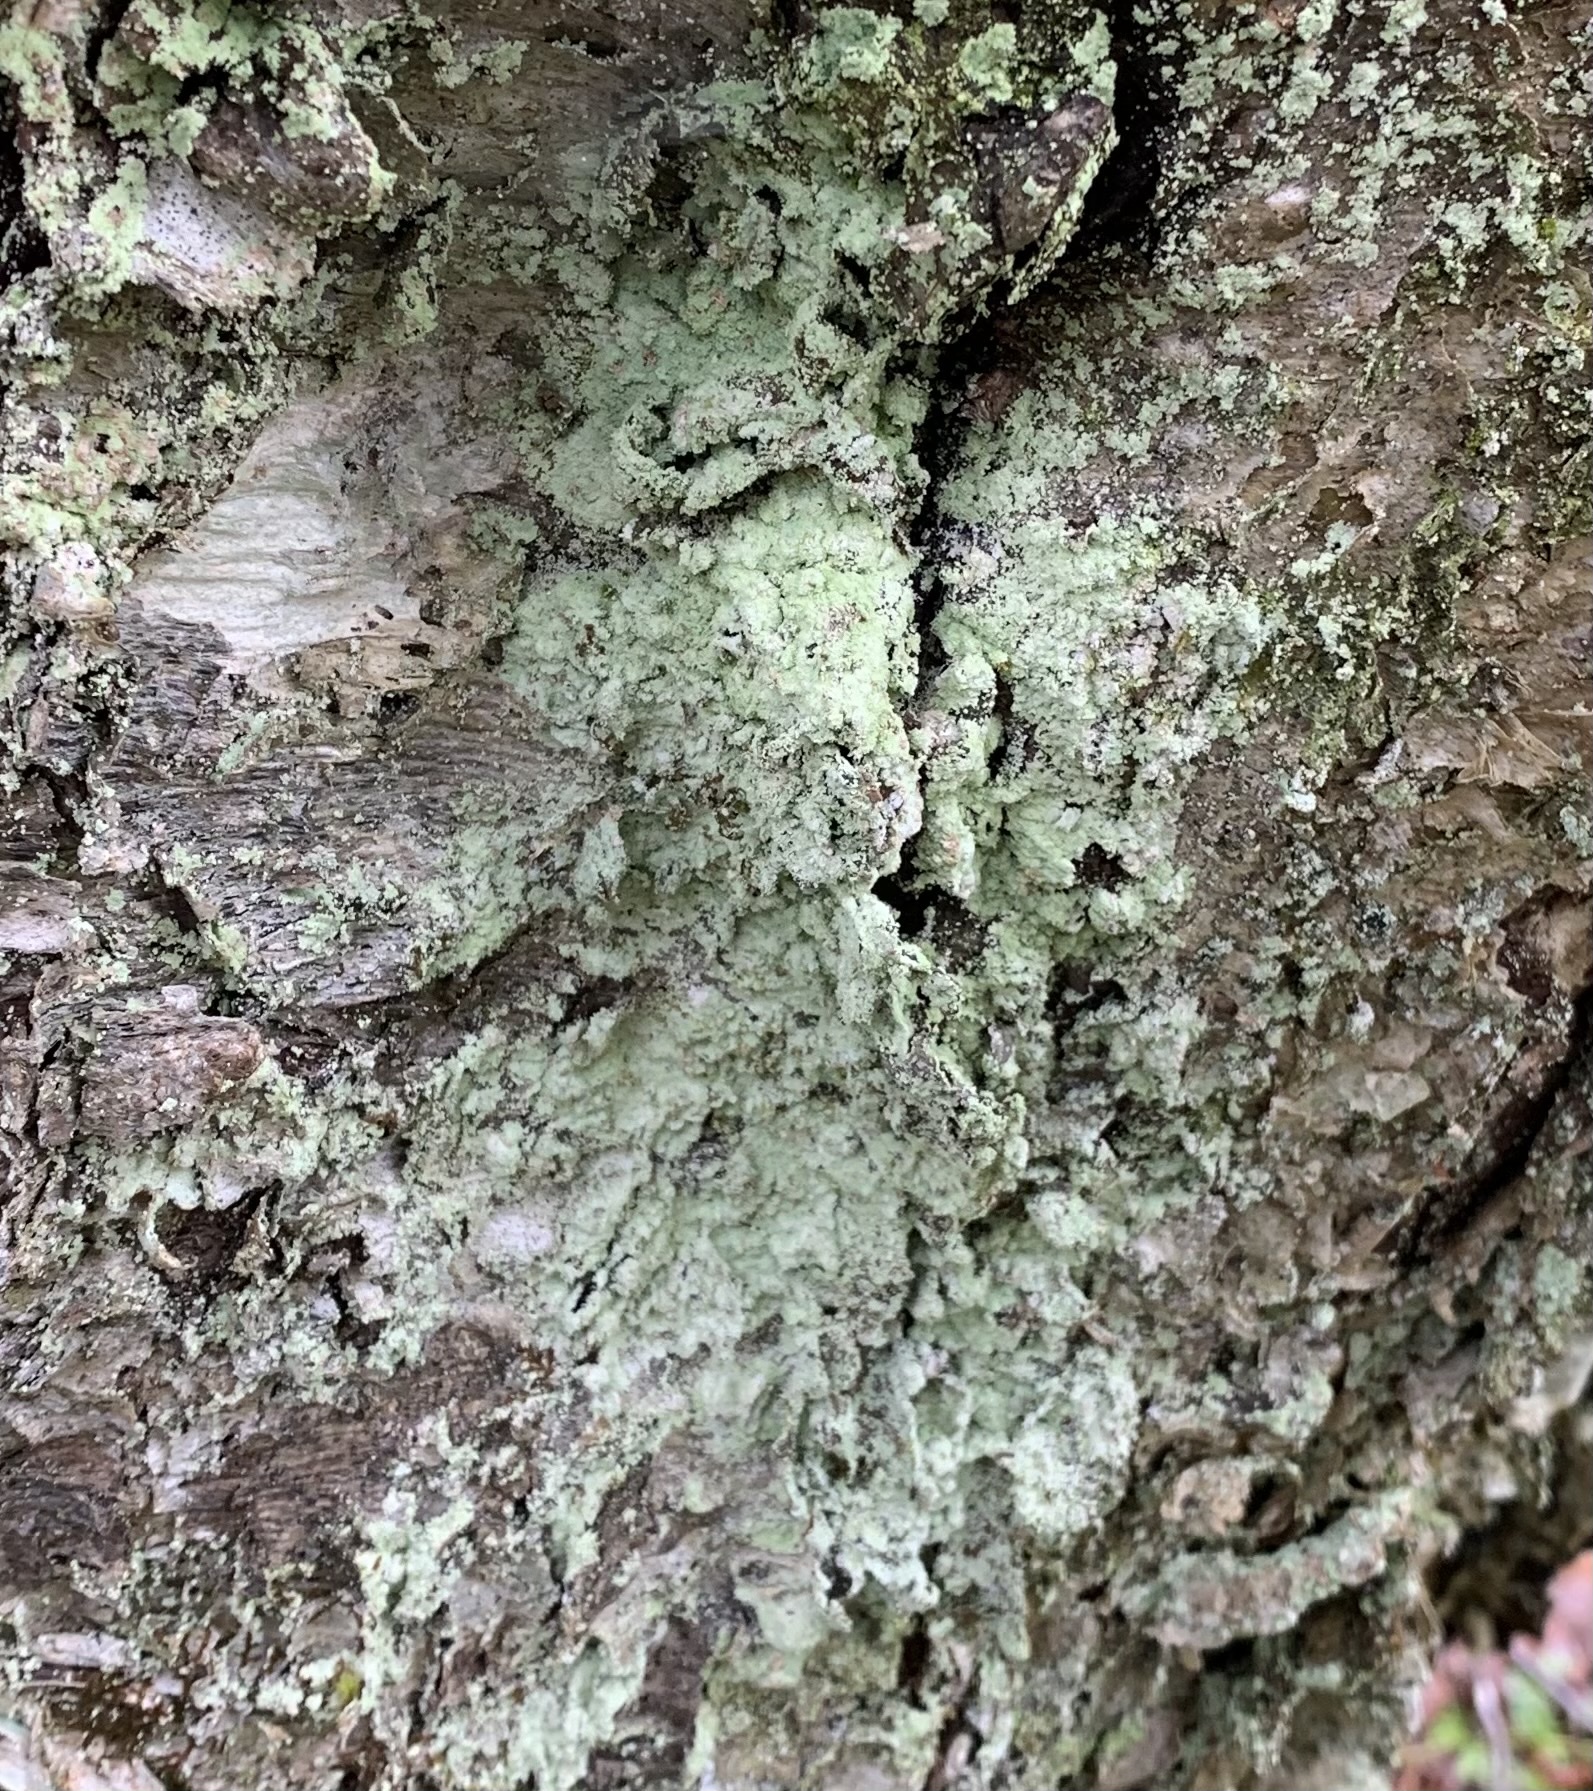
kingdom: Fungi
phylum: Ascomycota
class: Lecanoromycetes
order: Pertusariales
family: Pertusariaceae
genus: Verseghya
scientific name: Verseghya thysanophora
